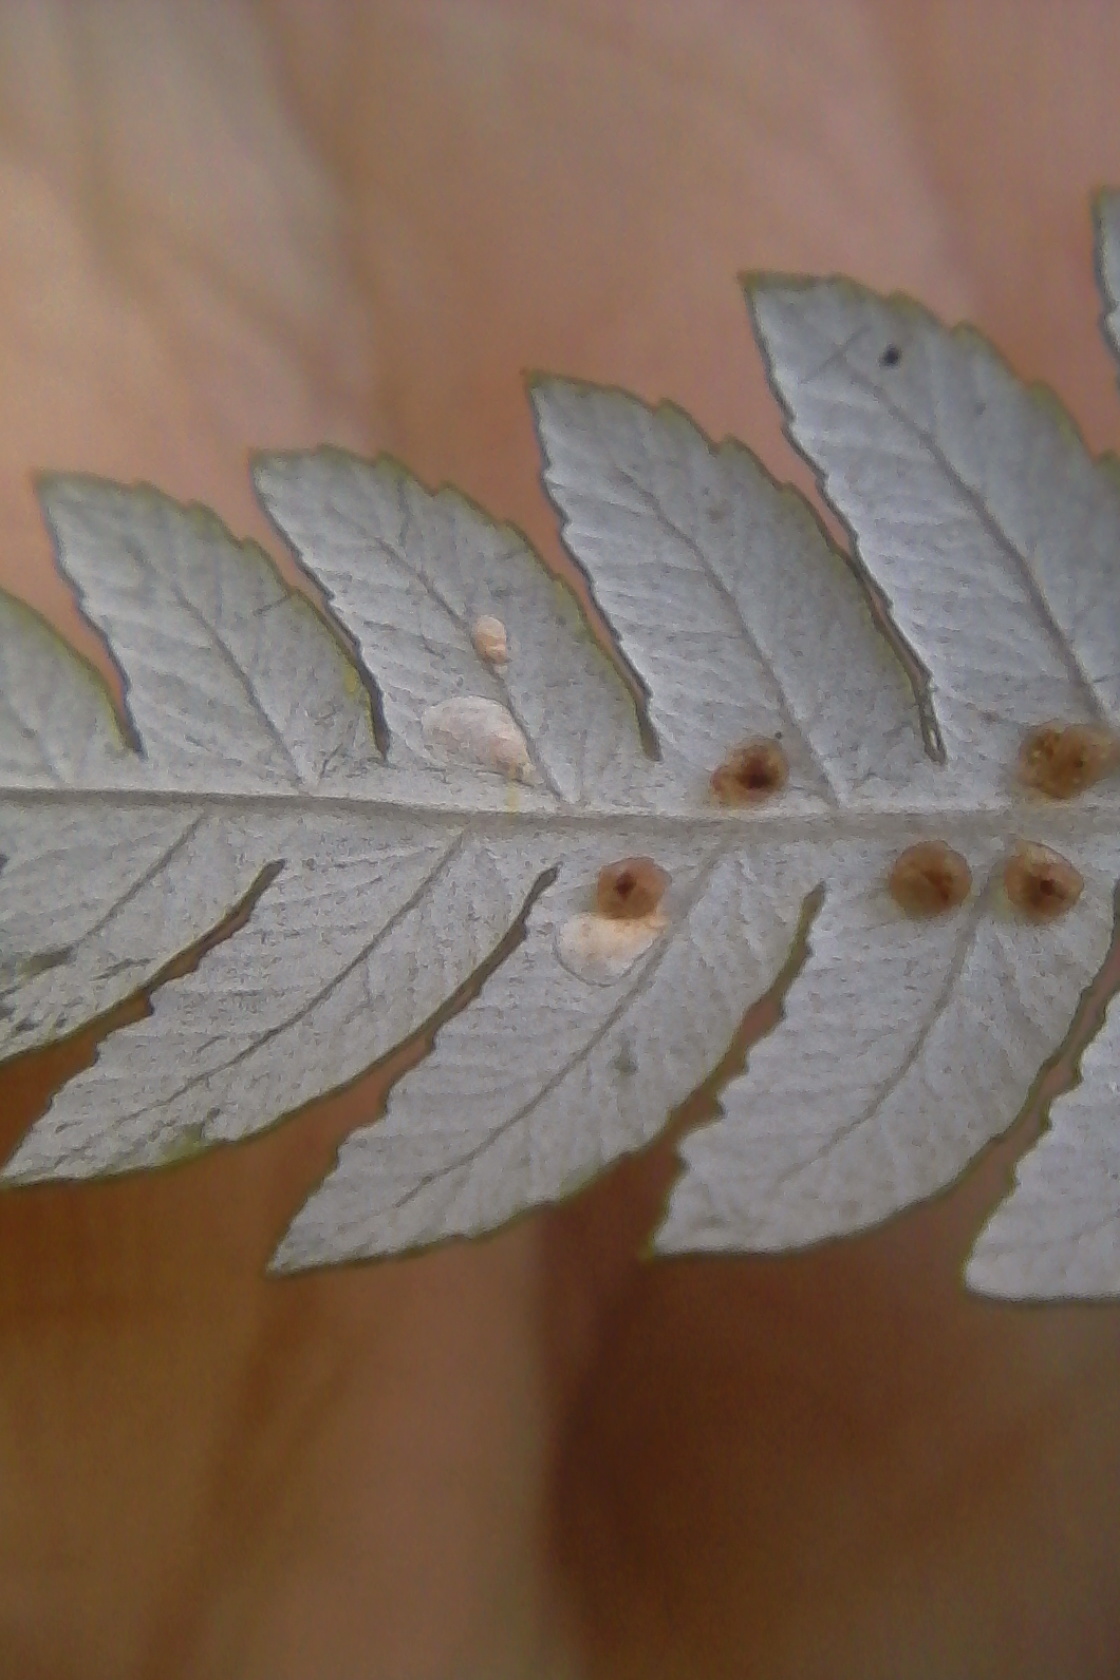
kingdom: Animalia
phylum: Arthropoda
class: Insecta
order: Hemiptera
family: Diaspididae
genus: Pseudaulacaspis
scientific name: Pseudaulacaspis phymatodidis
